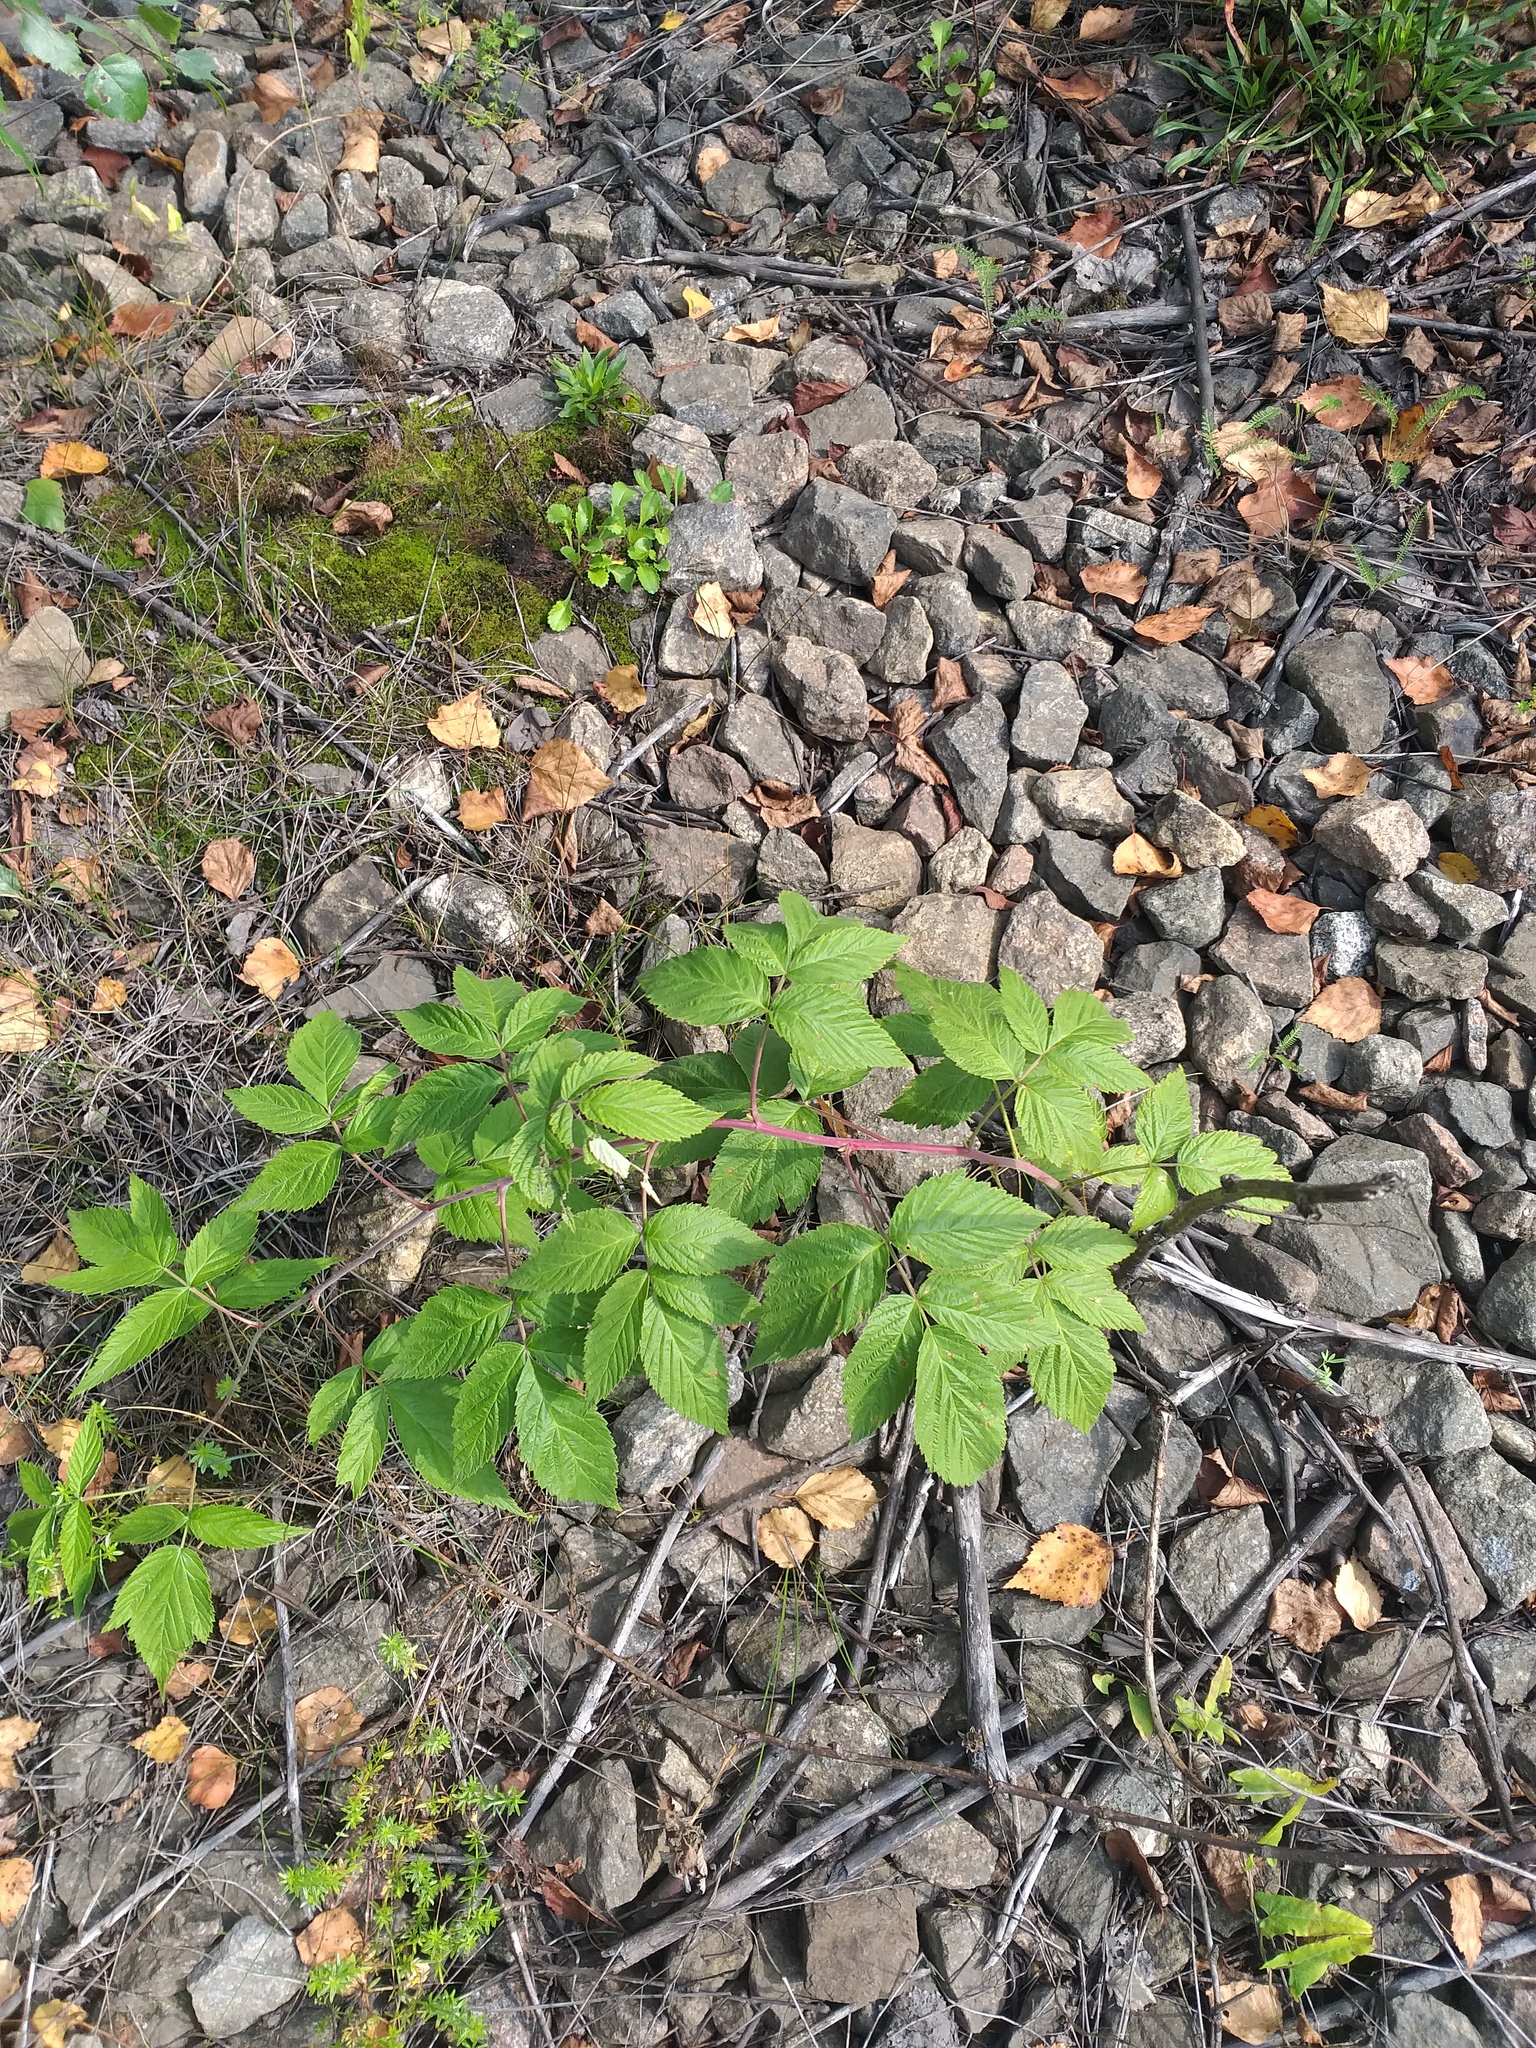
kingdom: Plantae
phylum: Tracheophyta
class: Magnoliopsida
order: Rosales
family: Rosaceae
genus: Rubus
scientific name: Rubus idaeus
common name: Raspberry
